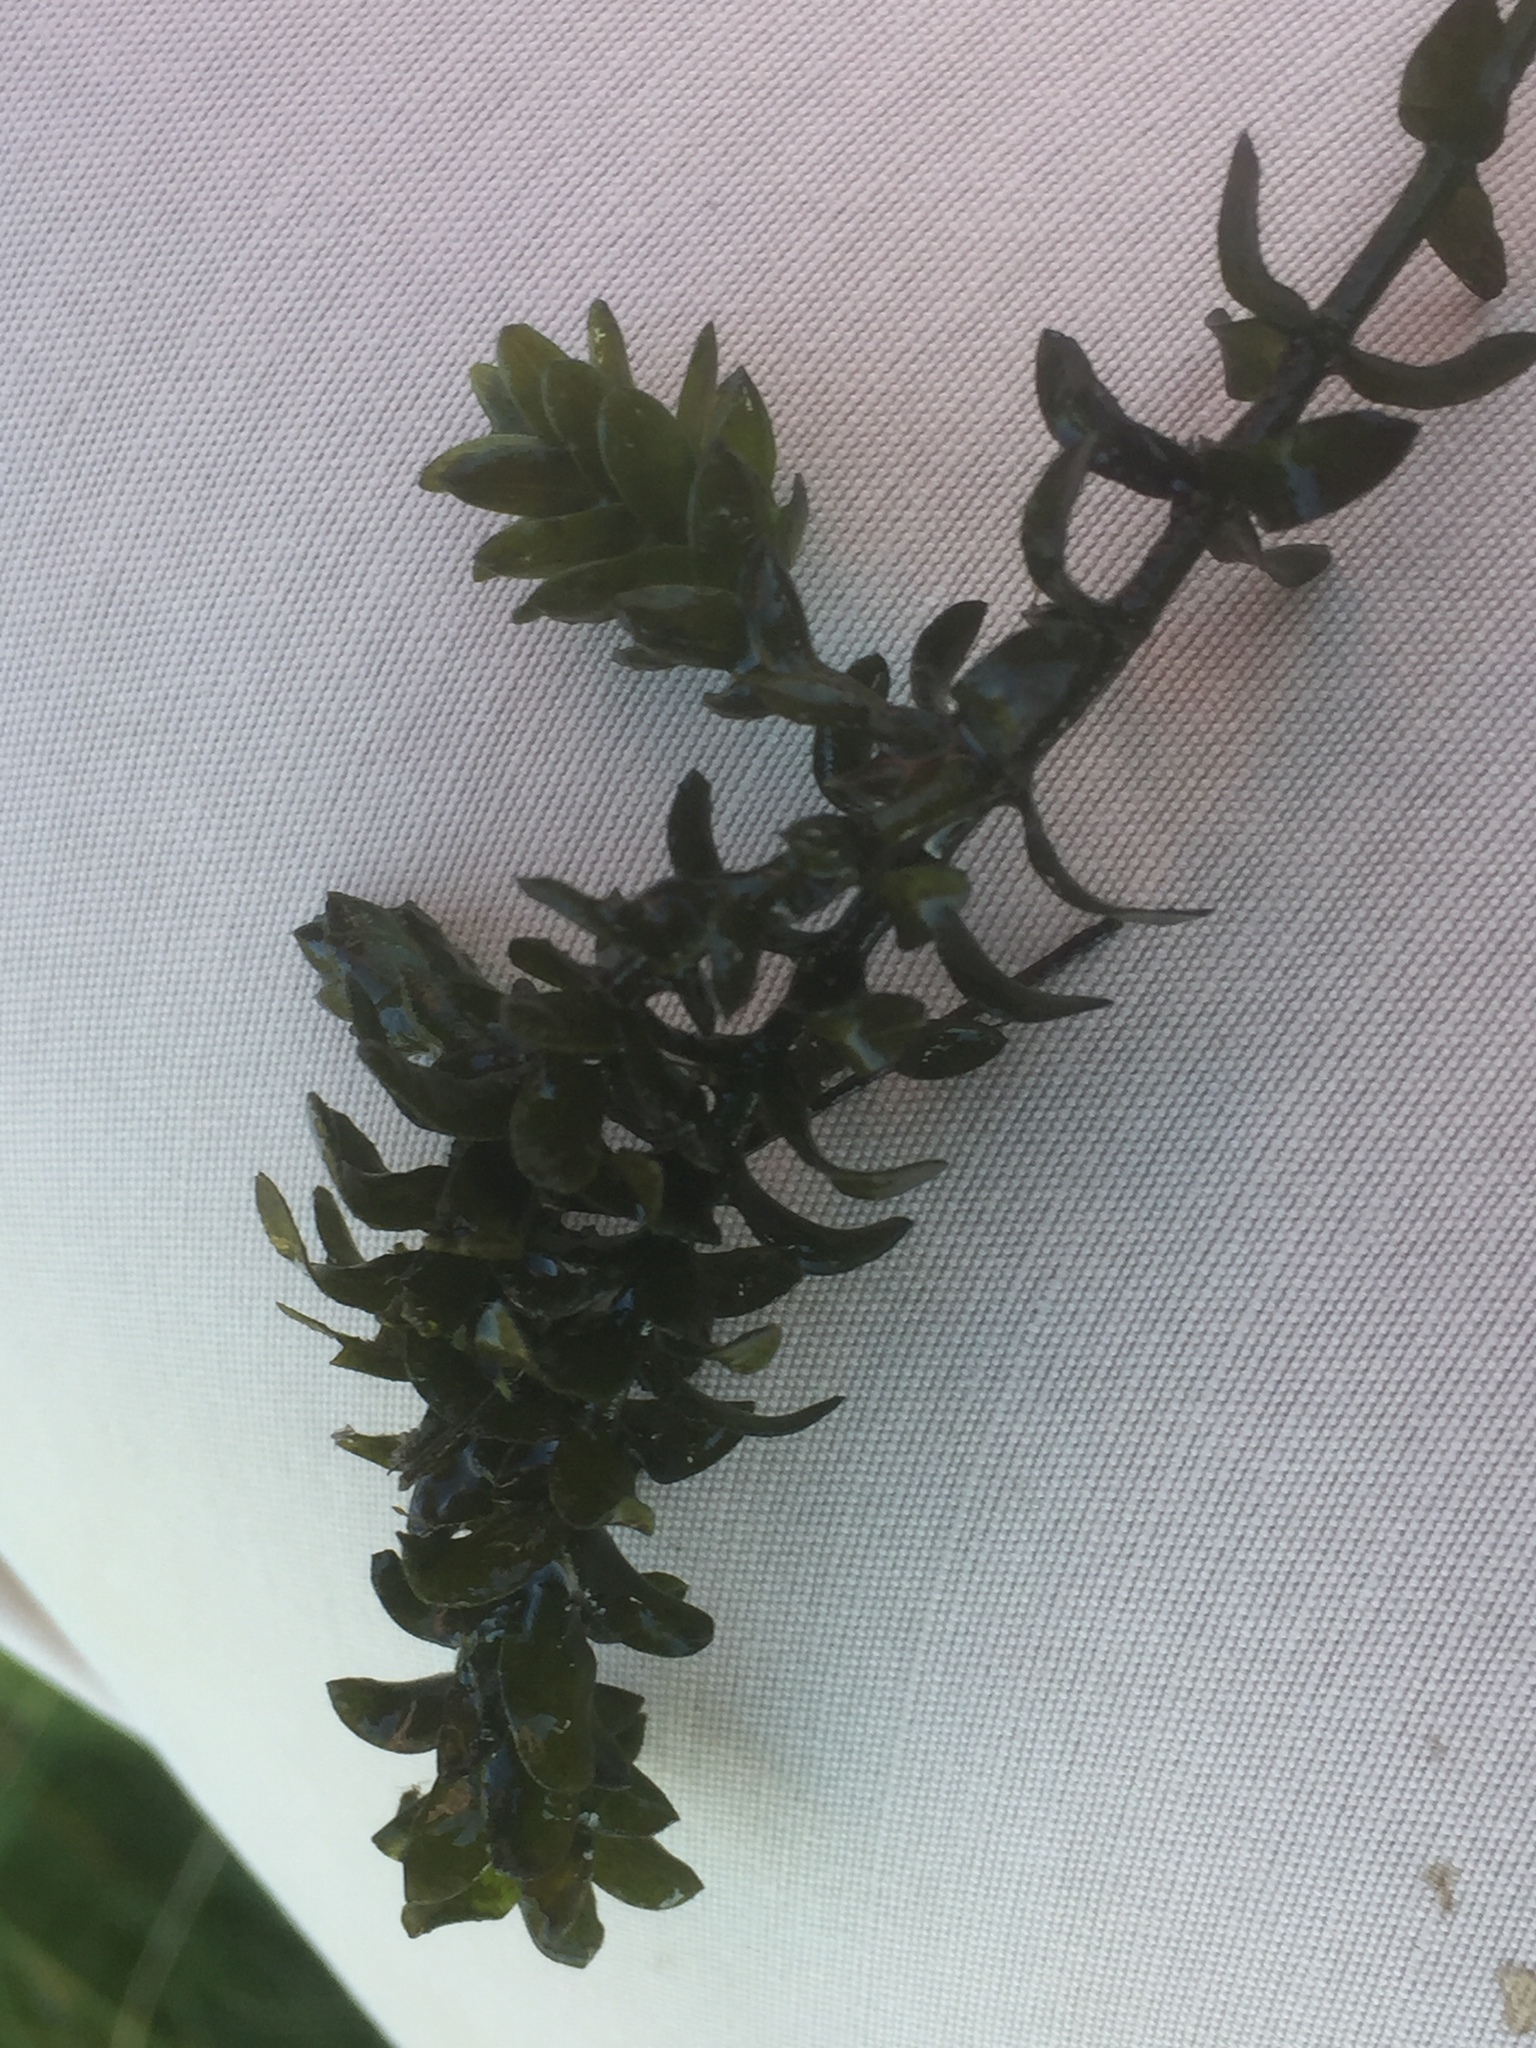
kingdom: Plantae
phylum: Tracheophyta
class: Liliopsida
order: Alismatales
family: Hydrocharitaceae
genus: Elodea
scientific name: Elodea canadensis
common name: Canadian waterweed
